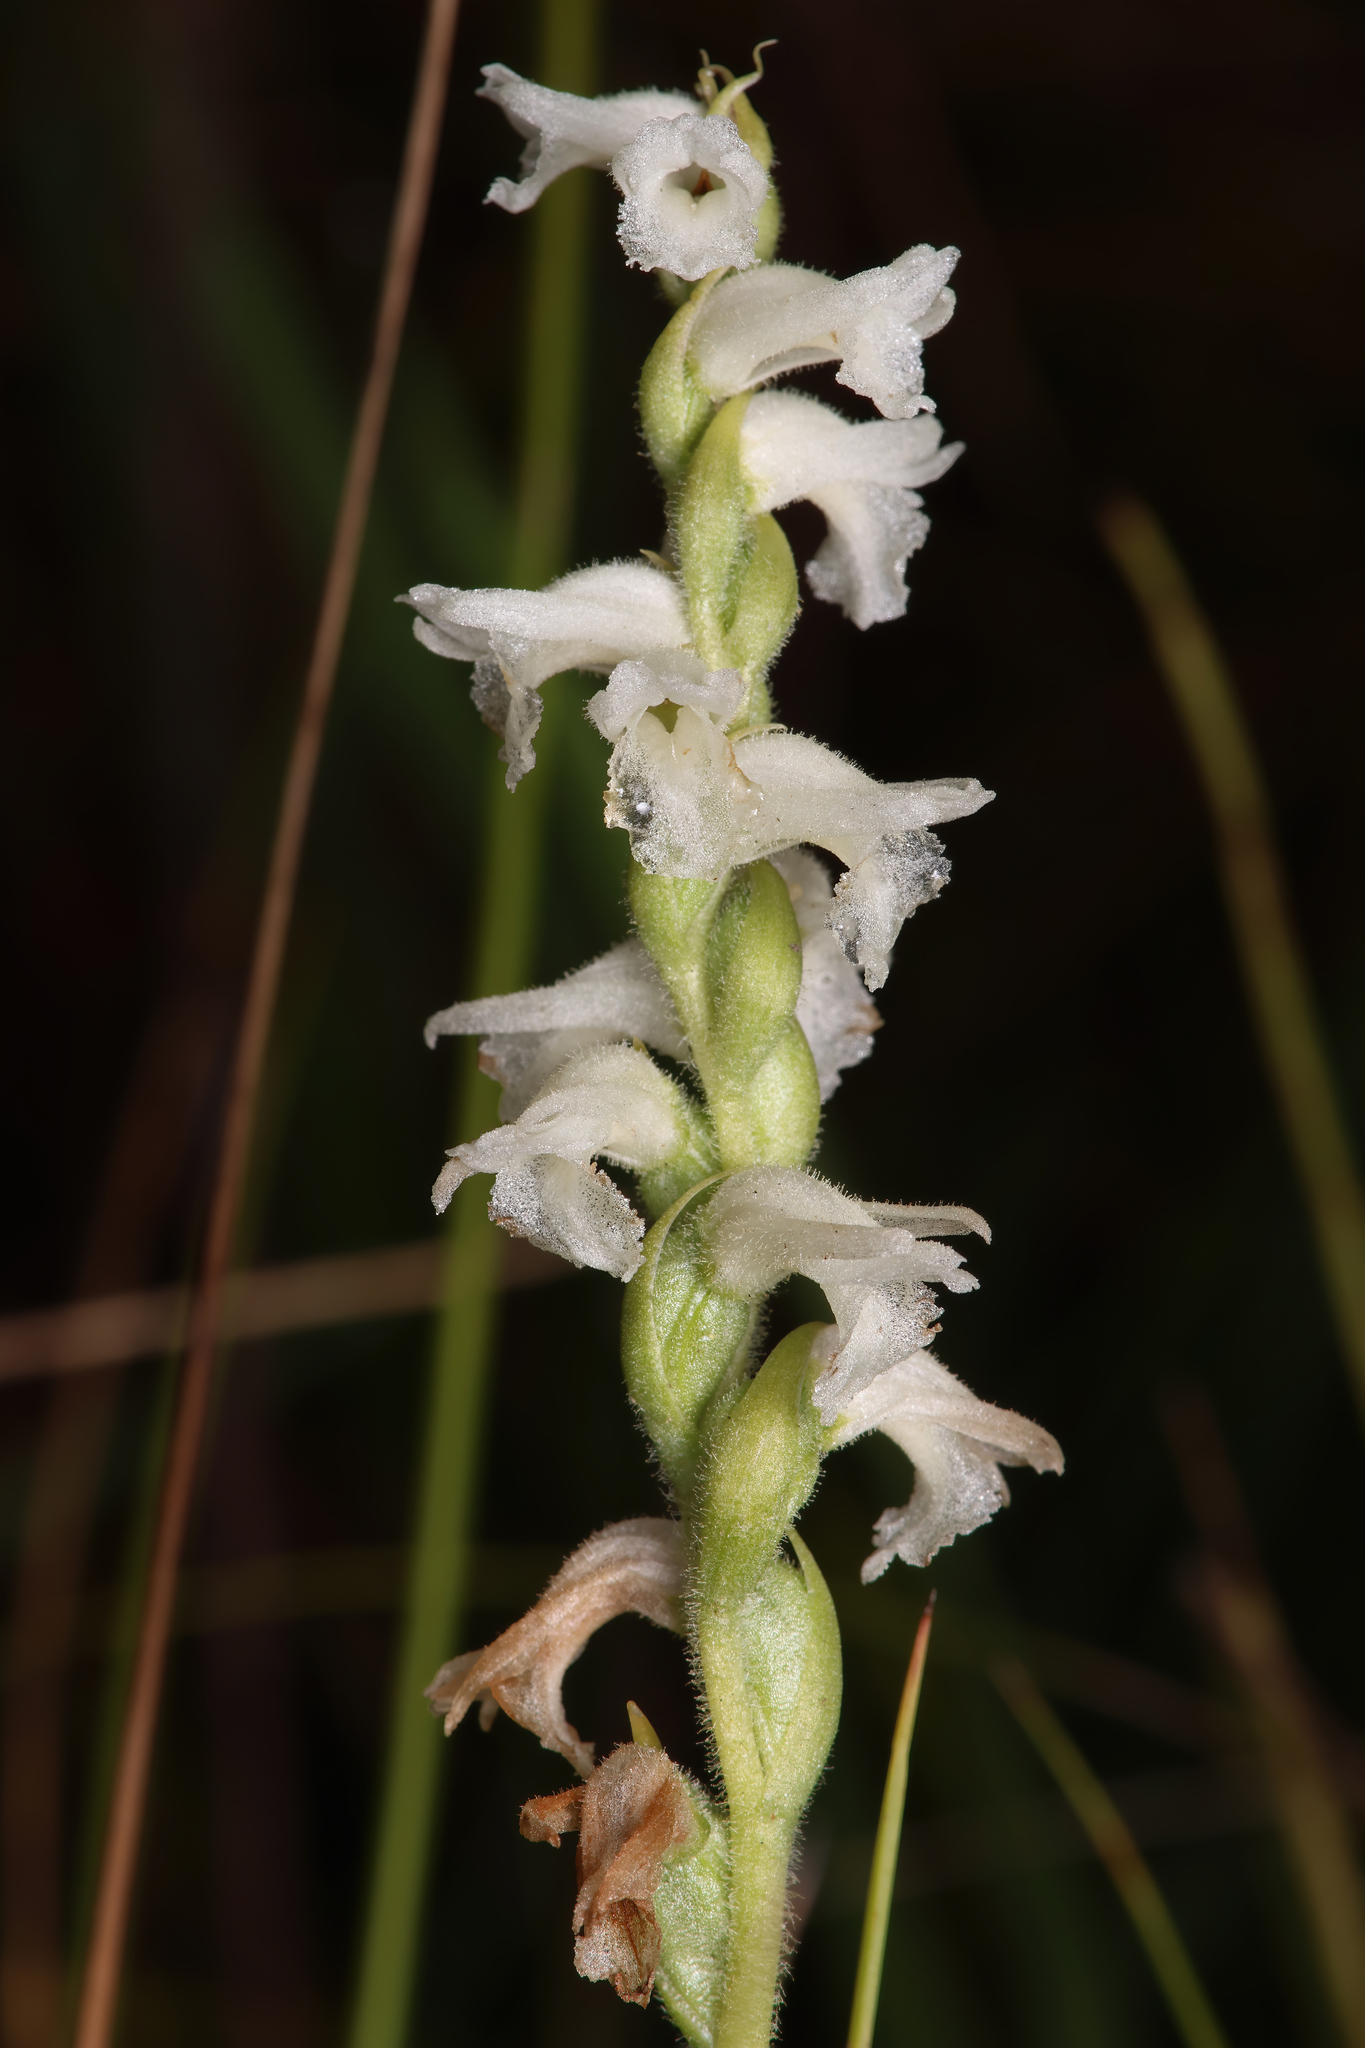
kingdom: Plantae
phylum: Tracheophyta
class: Liliopsida
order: Asparagales
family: Orchidaceae
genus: Spiranthes
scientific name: Spiranthes incurva
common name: Sphinx ladies'-tresses
